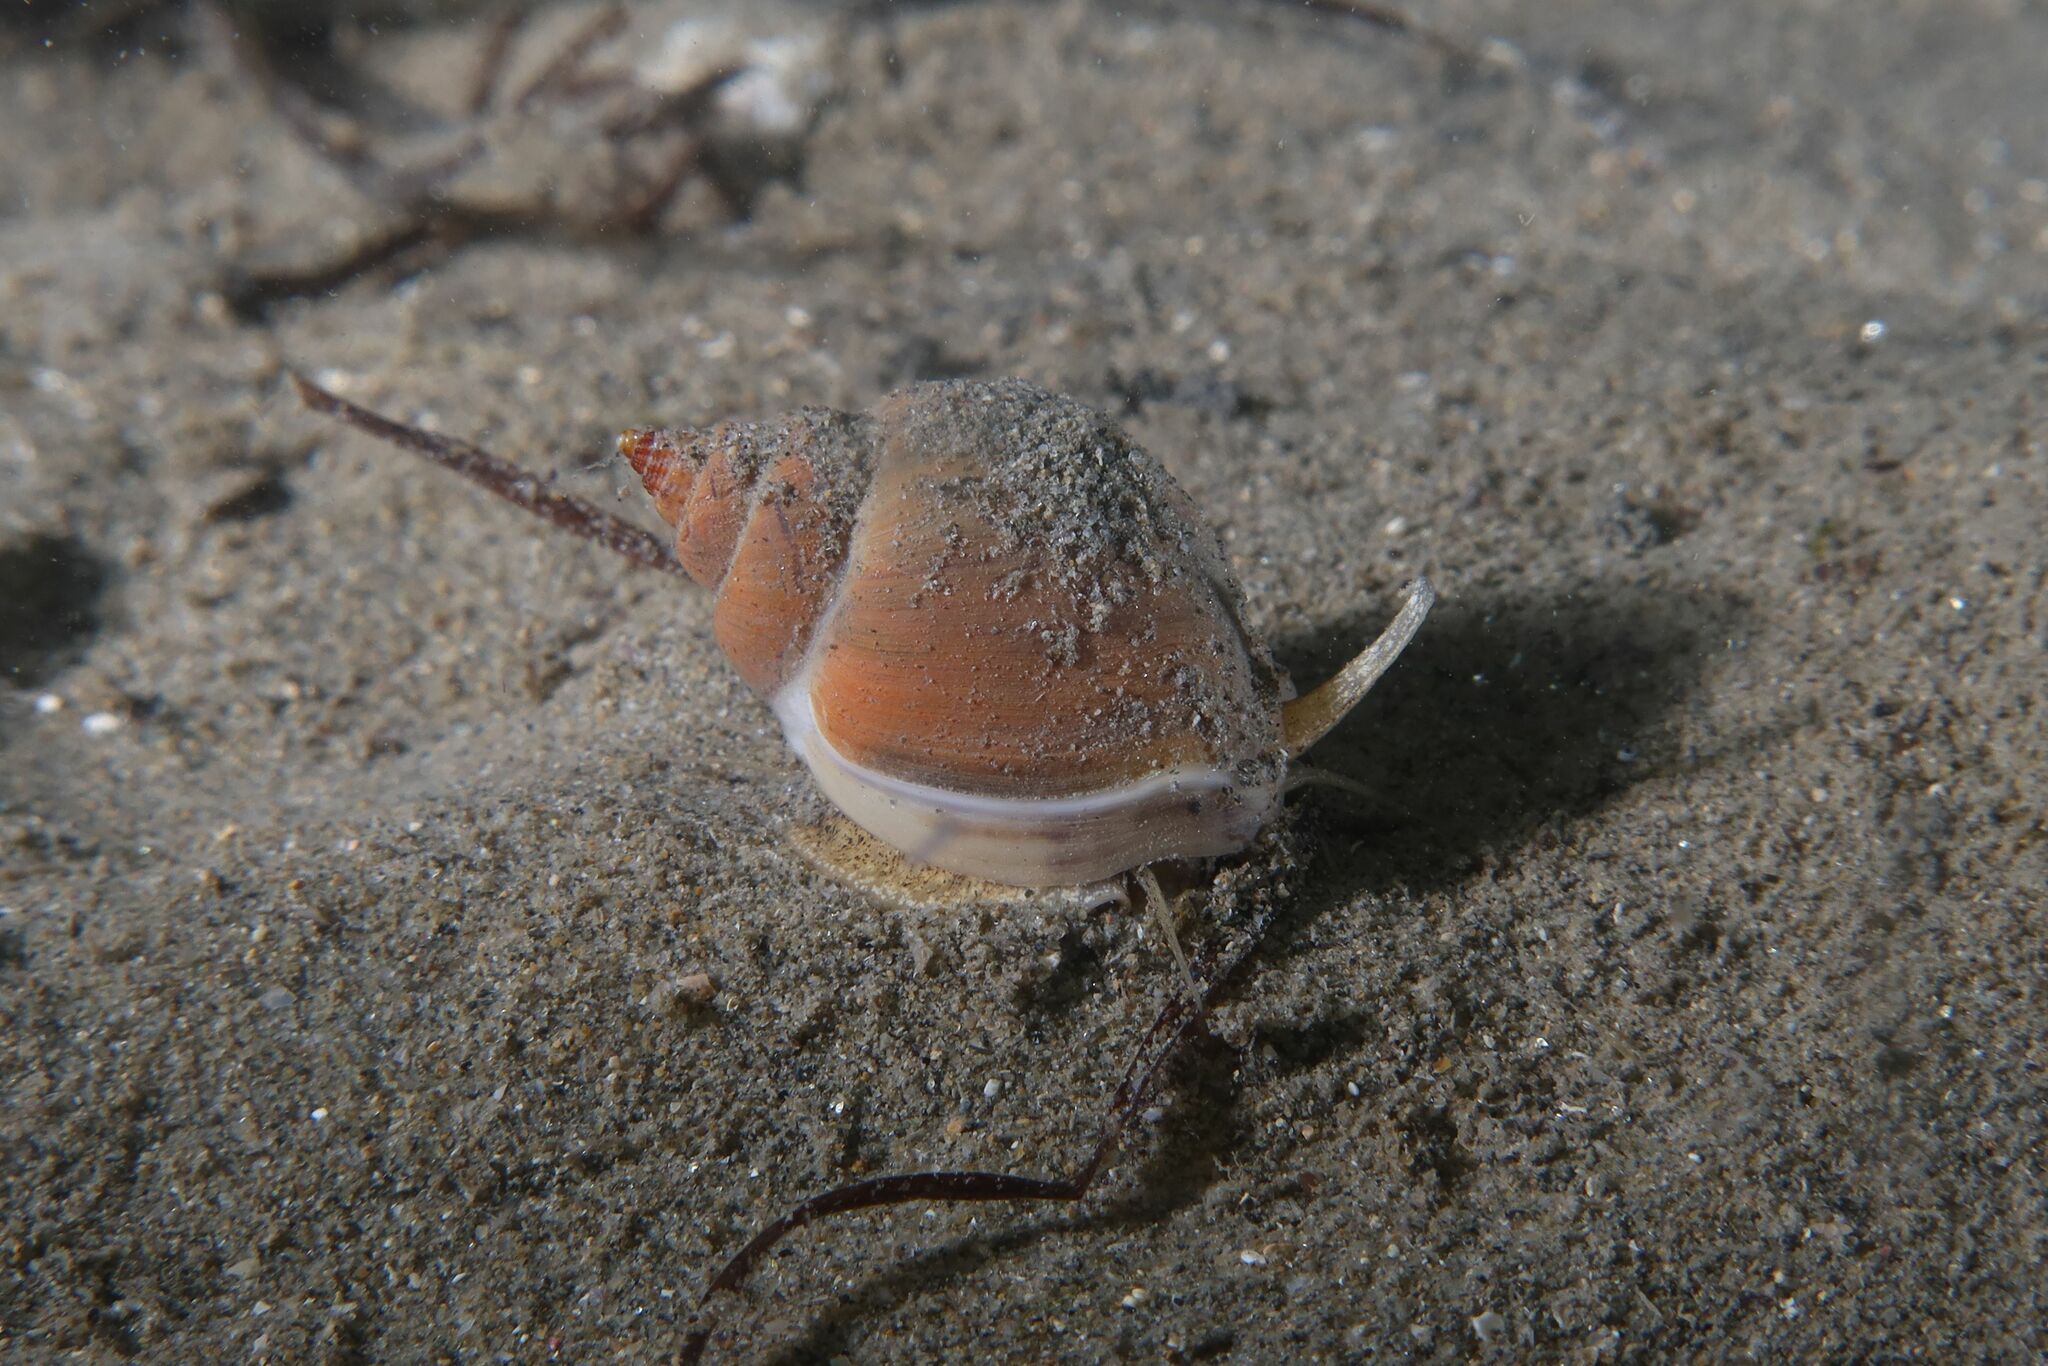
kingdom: Animalia
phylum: Mollusca
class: Gastropoda
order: Neogastropoda
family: Nassariidae
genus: Tritia
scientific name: Tritia mutabilis
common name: Mutable nassa
